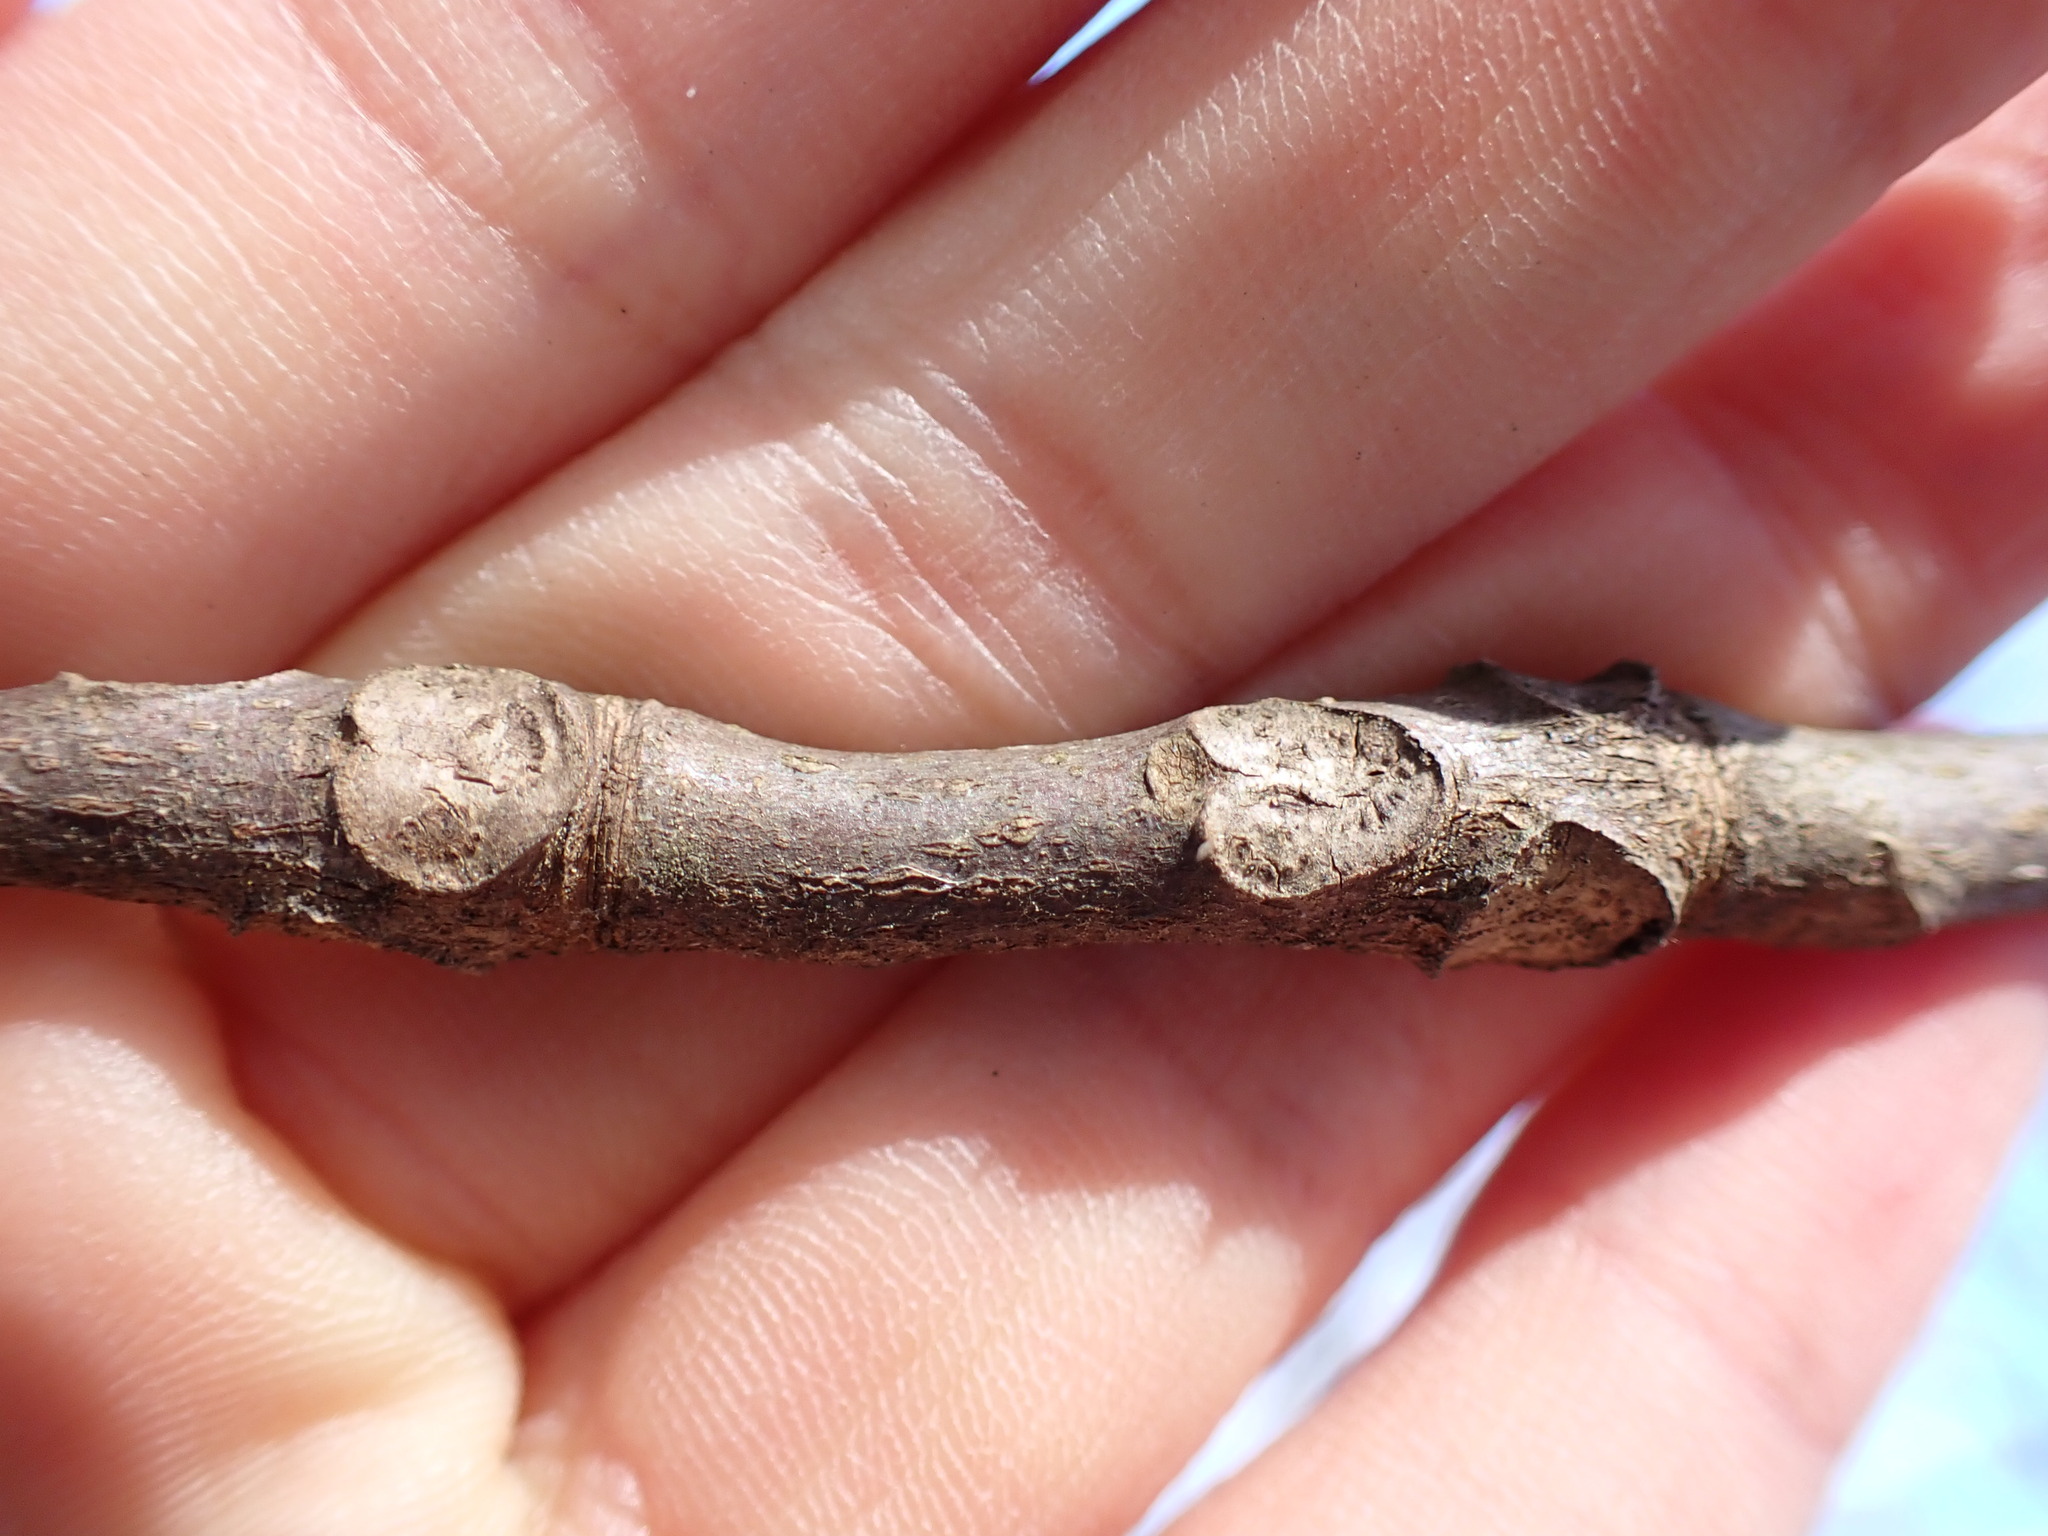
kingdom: Plantae
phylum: Tracheophyta
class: Magnoliopsida
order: Fagales
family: Juglandaceae
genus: Carya
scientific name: Carya glabra
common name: Pignut hickory
